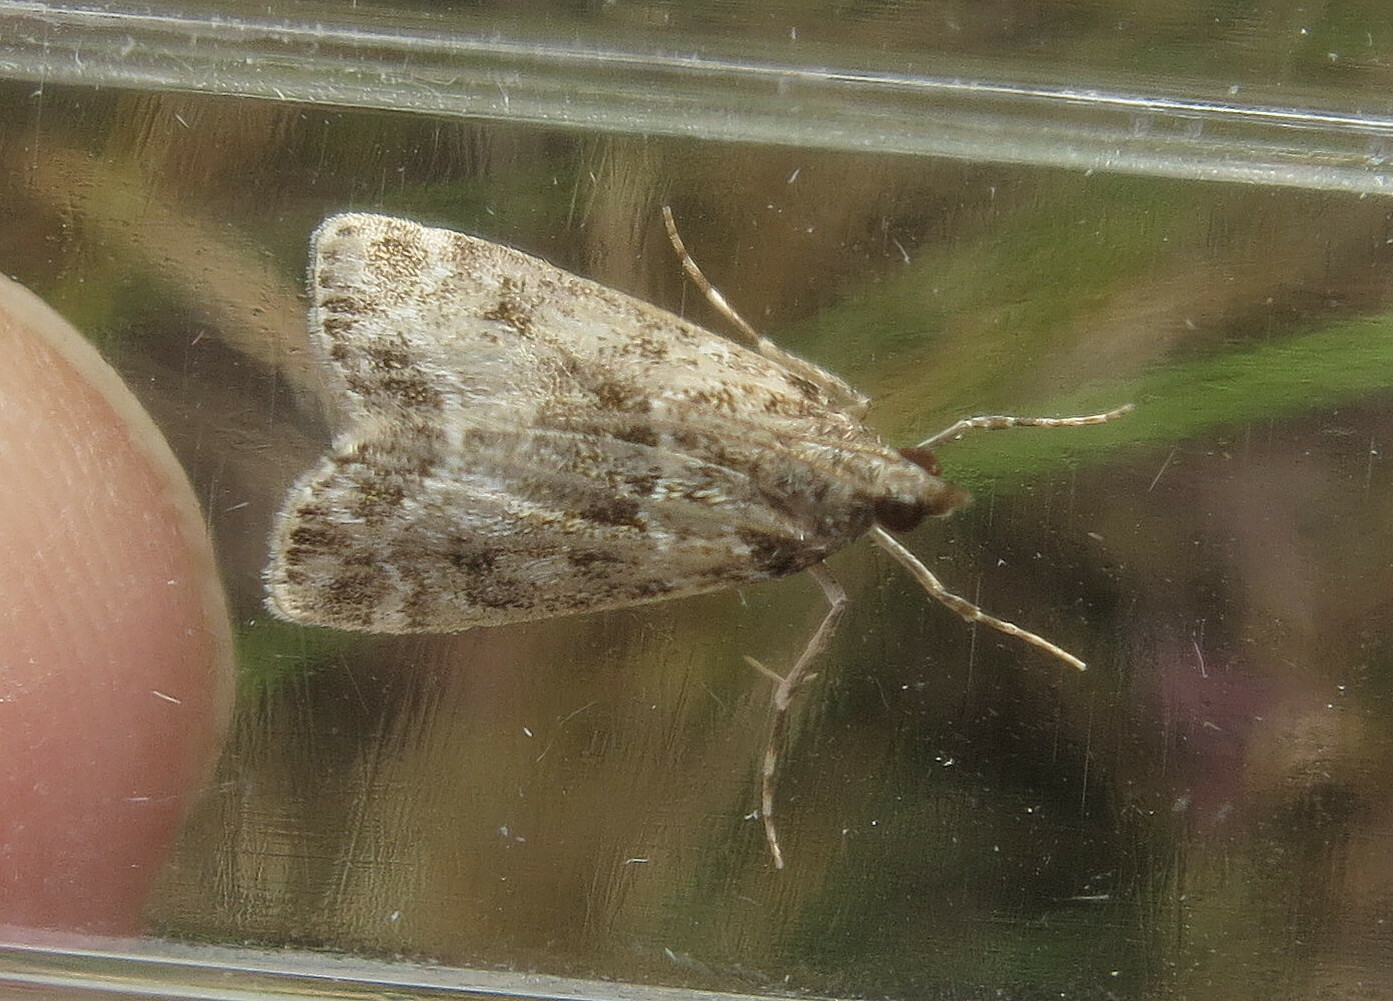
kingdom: Animalia
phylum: Arthropoda
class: Insecta
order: Lepidoptera
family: Crambidae
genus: Eudonia
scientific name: Eudonia mercurella
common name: Small grey
